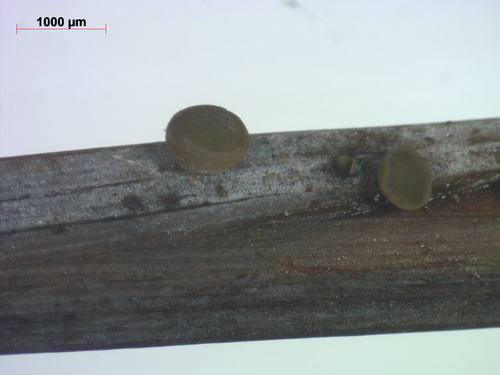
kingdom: Fungi
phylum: Ascomycota
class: Leotiomycetes
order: Helotiales
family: Mollisiaceae
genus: Trichobelonium
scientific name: Trichobelonium kneiffii
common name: Reed mat disco
